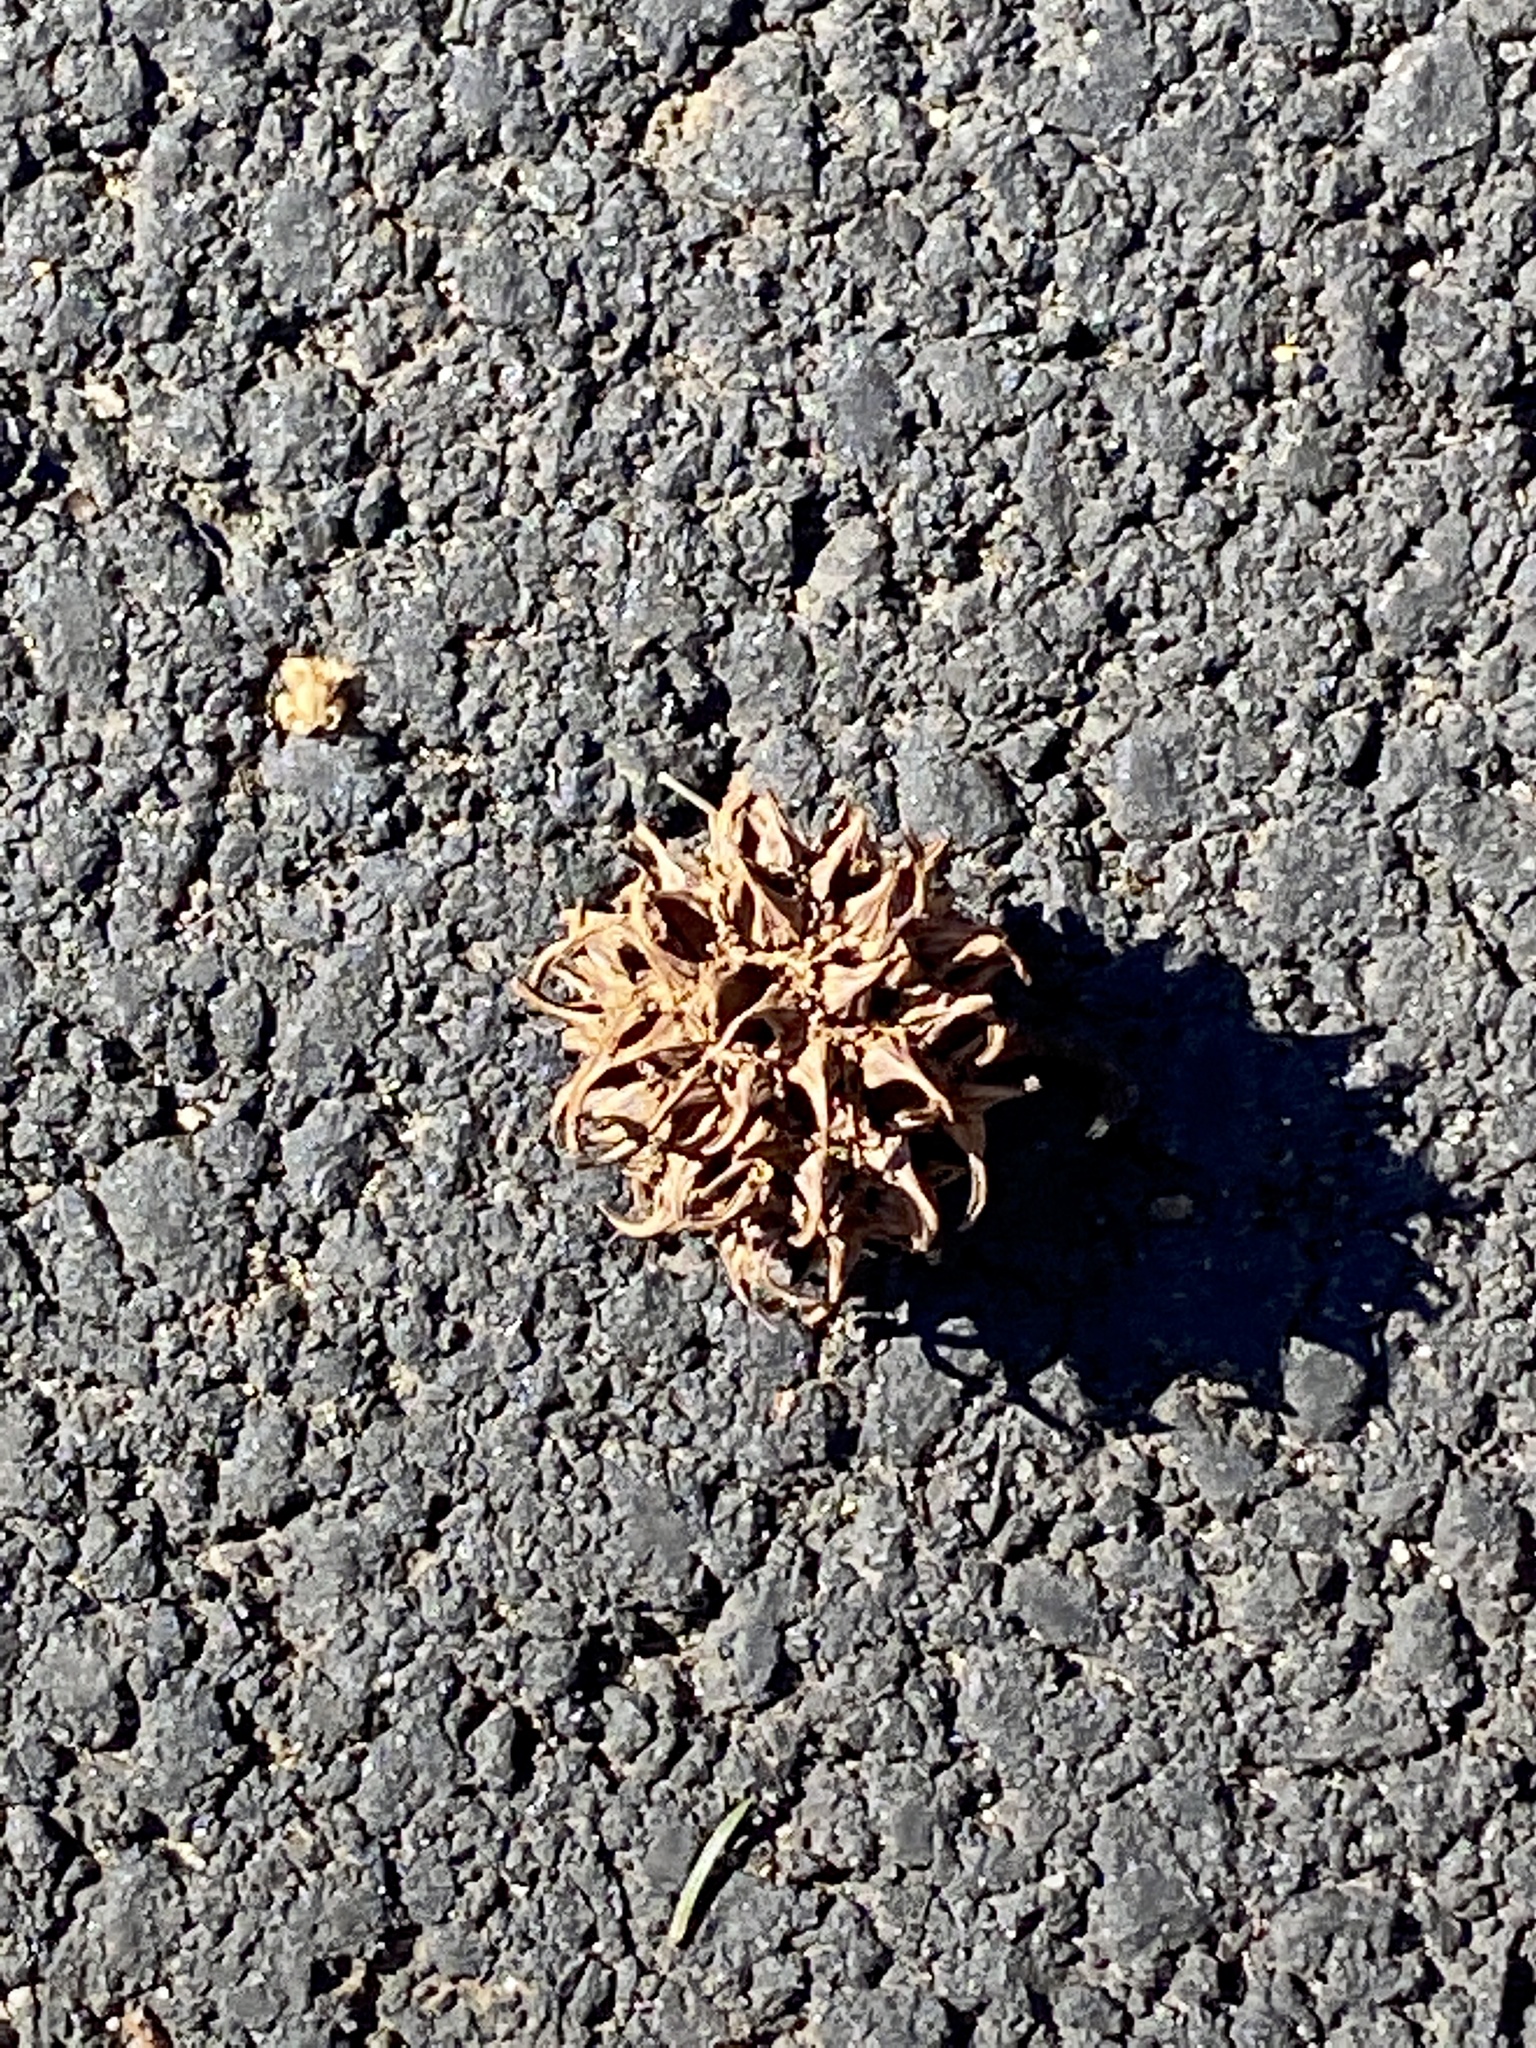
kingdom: Plantae
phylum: Tracheophyta
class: Magnoliopsida
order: Saxifragales
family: Altingiaceae
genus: Liquidambar
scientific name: Liquidambar styraciflua
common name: Sweet gum
